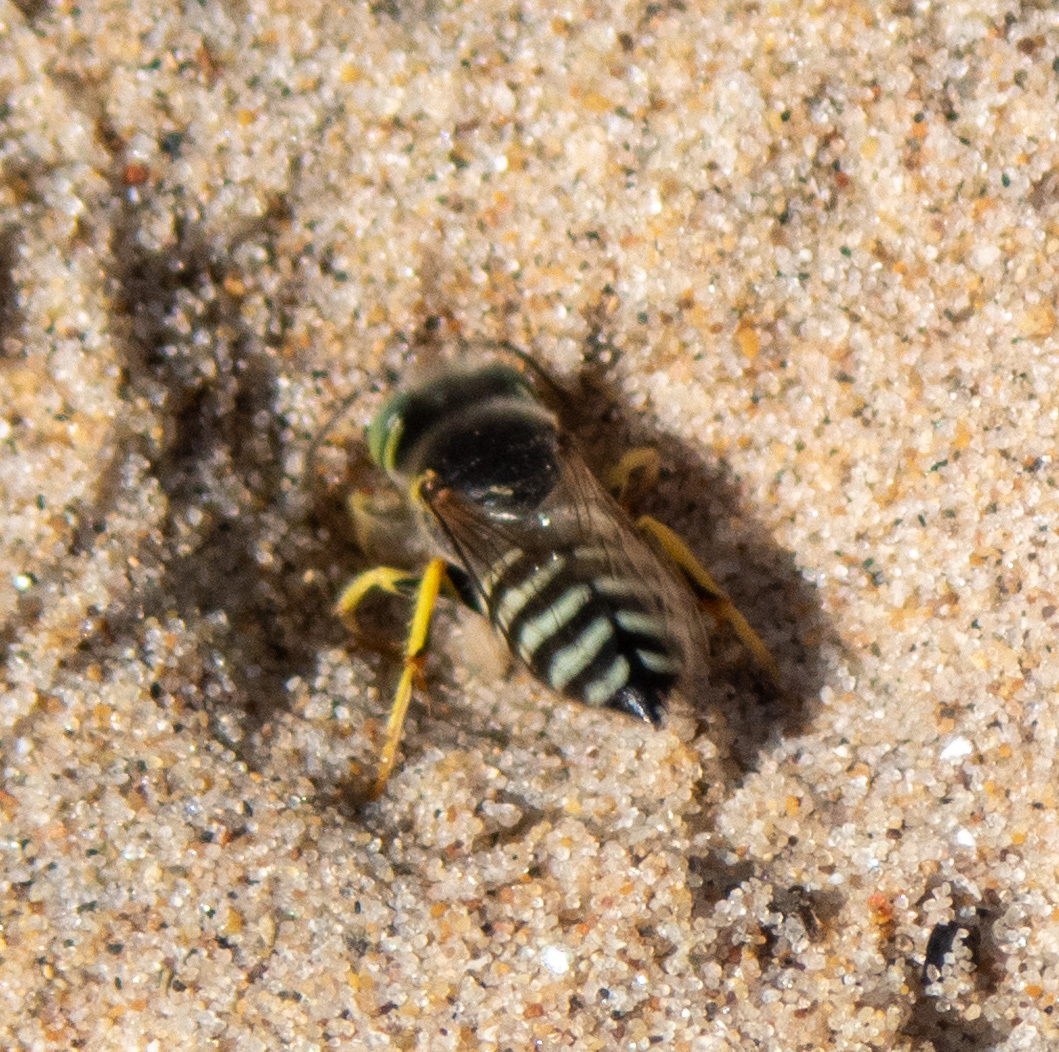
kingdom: Animalia
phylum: Arthropoda
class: Insecta
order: Hymenoptera
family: Crabronidae
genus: Bembix
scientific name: Bembix americana
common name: American sand wasp
